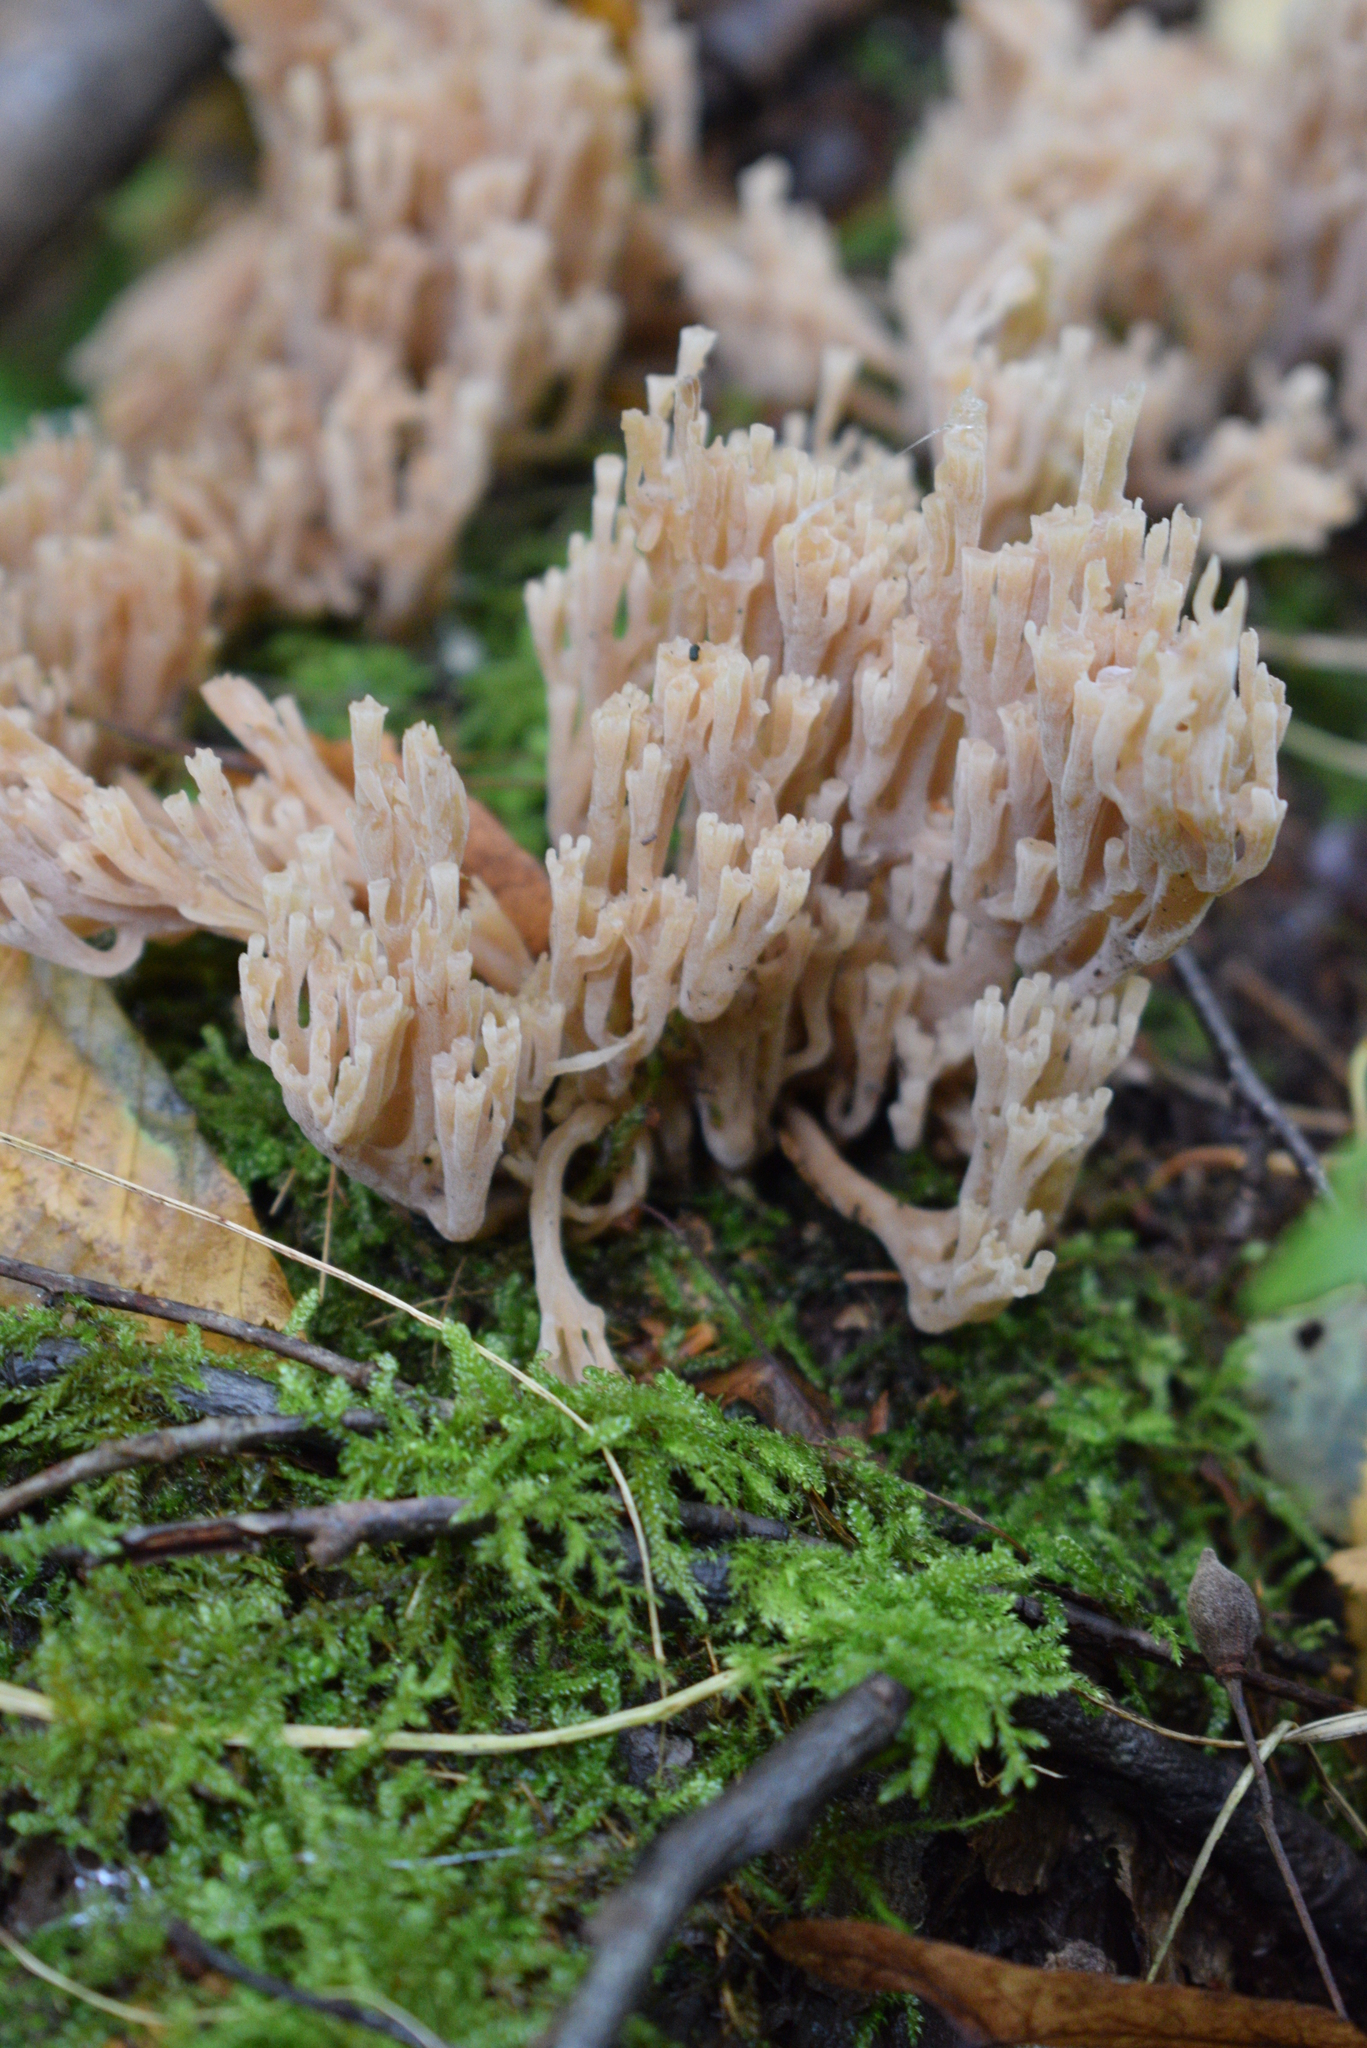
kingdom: Fungi
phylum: Basidiomycota
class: Agaricomycetes
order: Russulales
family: Auriscalpiaceae
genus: Artomyces
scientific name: Artomyces pyxidatus
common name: Crown-tipped coral fungus
